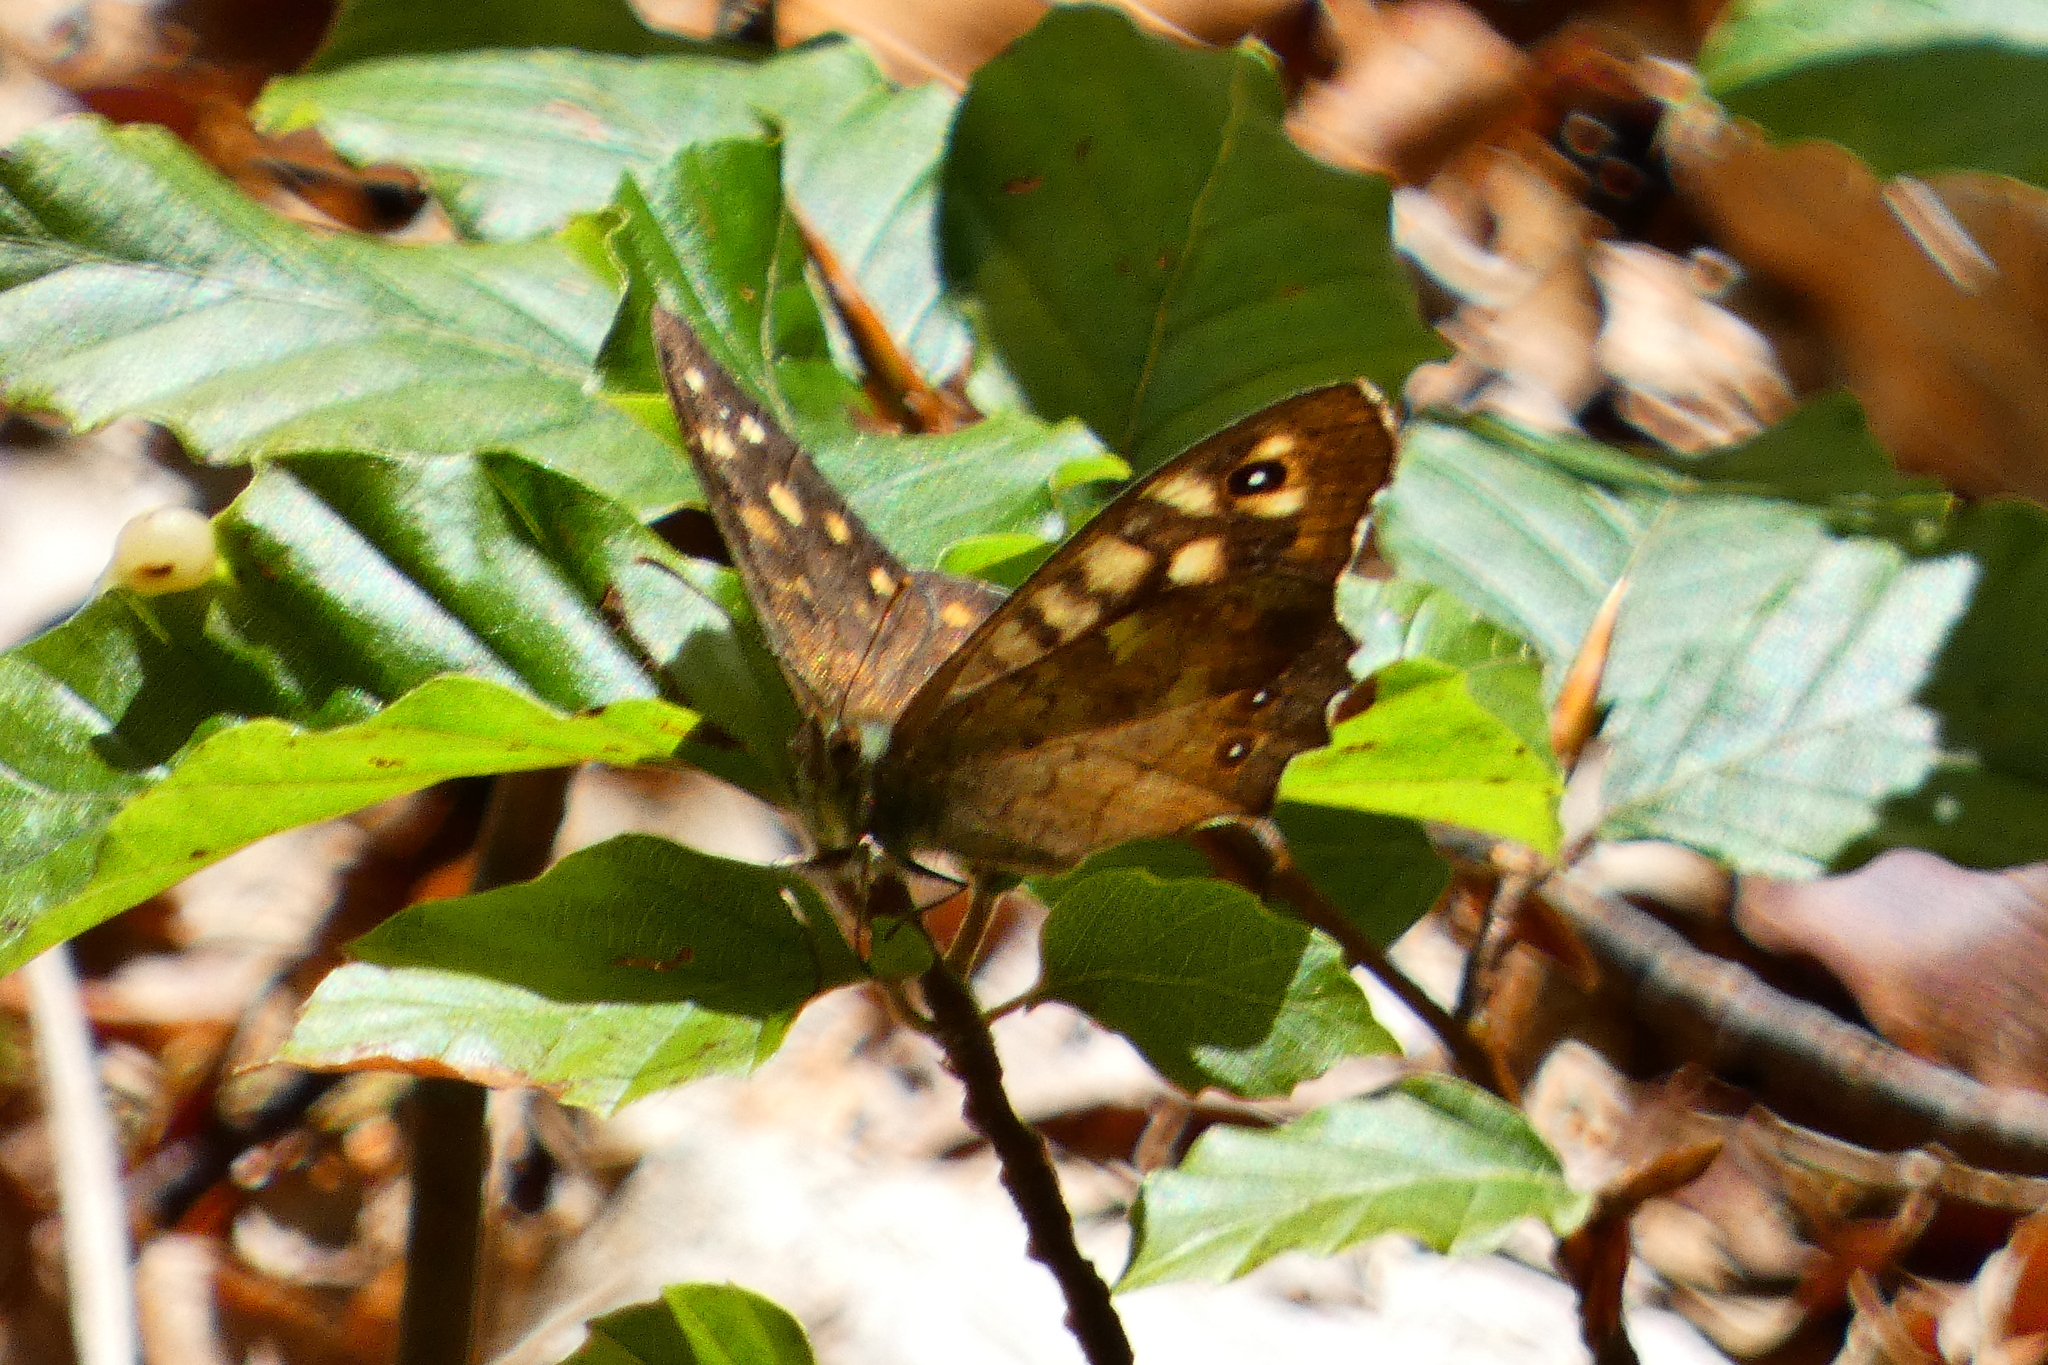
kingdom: Animalia
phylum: Arthropoda
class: Insecta
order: Lepidoptera
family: Nymphalidae
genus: Pararge
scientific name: Pararge aegeria
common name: Speckled wood
